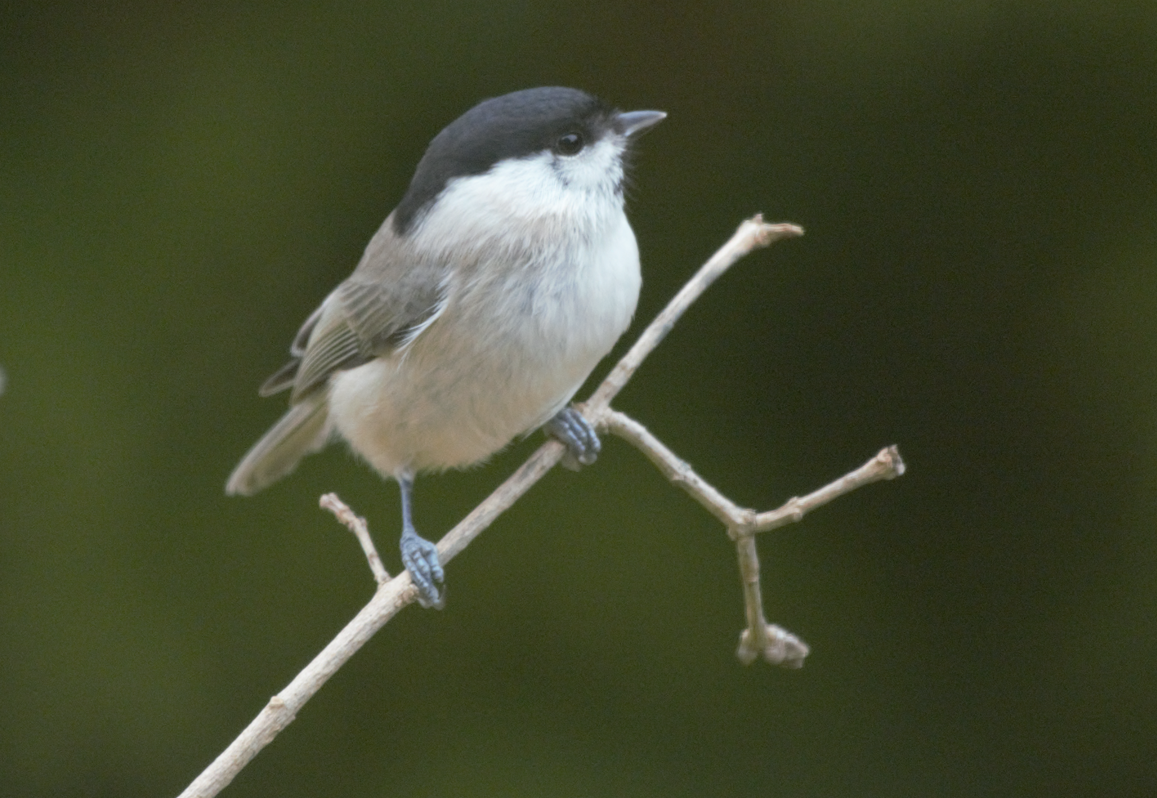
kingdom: Animalia
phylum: Chordata
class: Aves
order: Passeriformes
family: Paridae
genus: Poecile
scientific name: Poecile palustris
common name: Marsh tit
